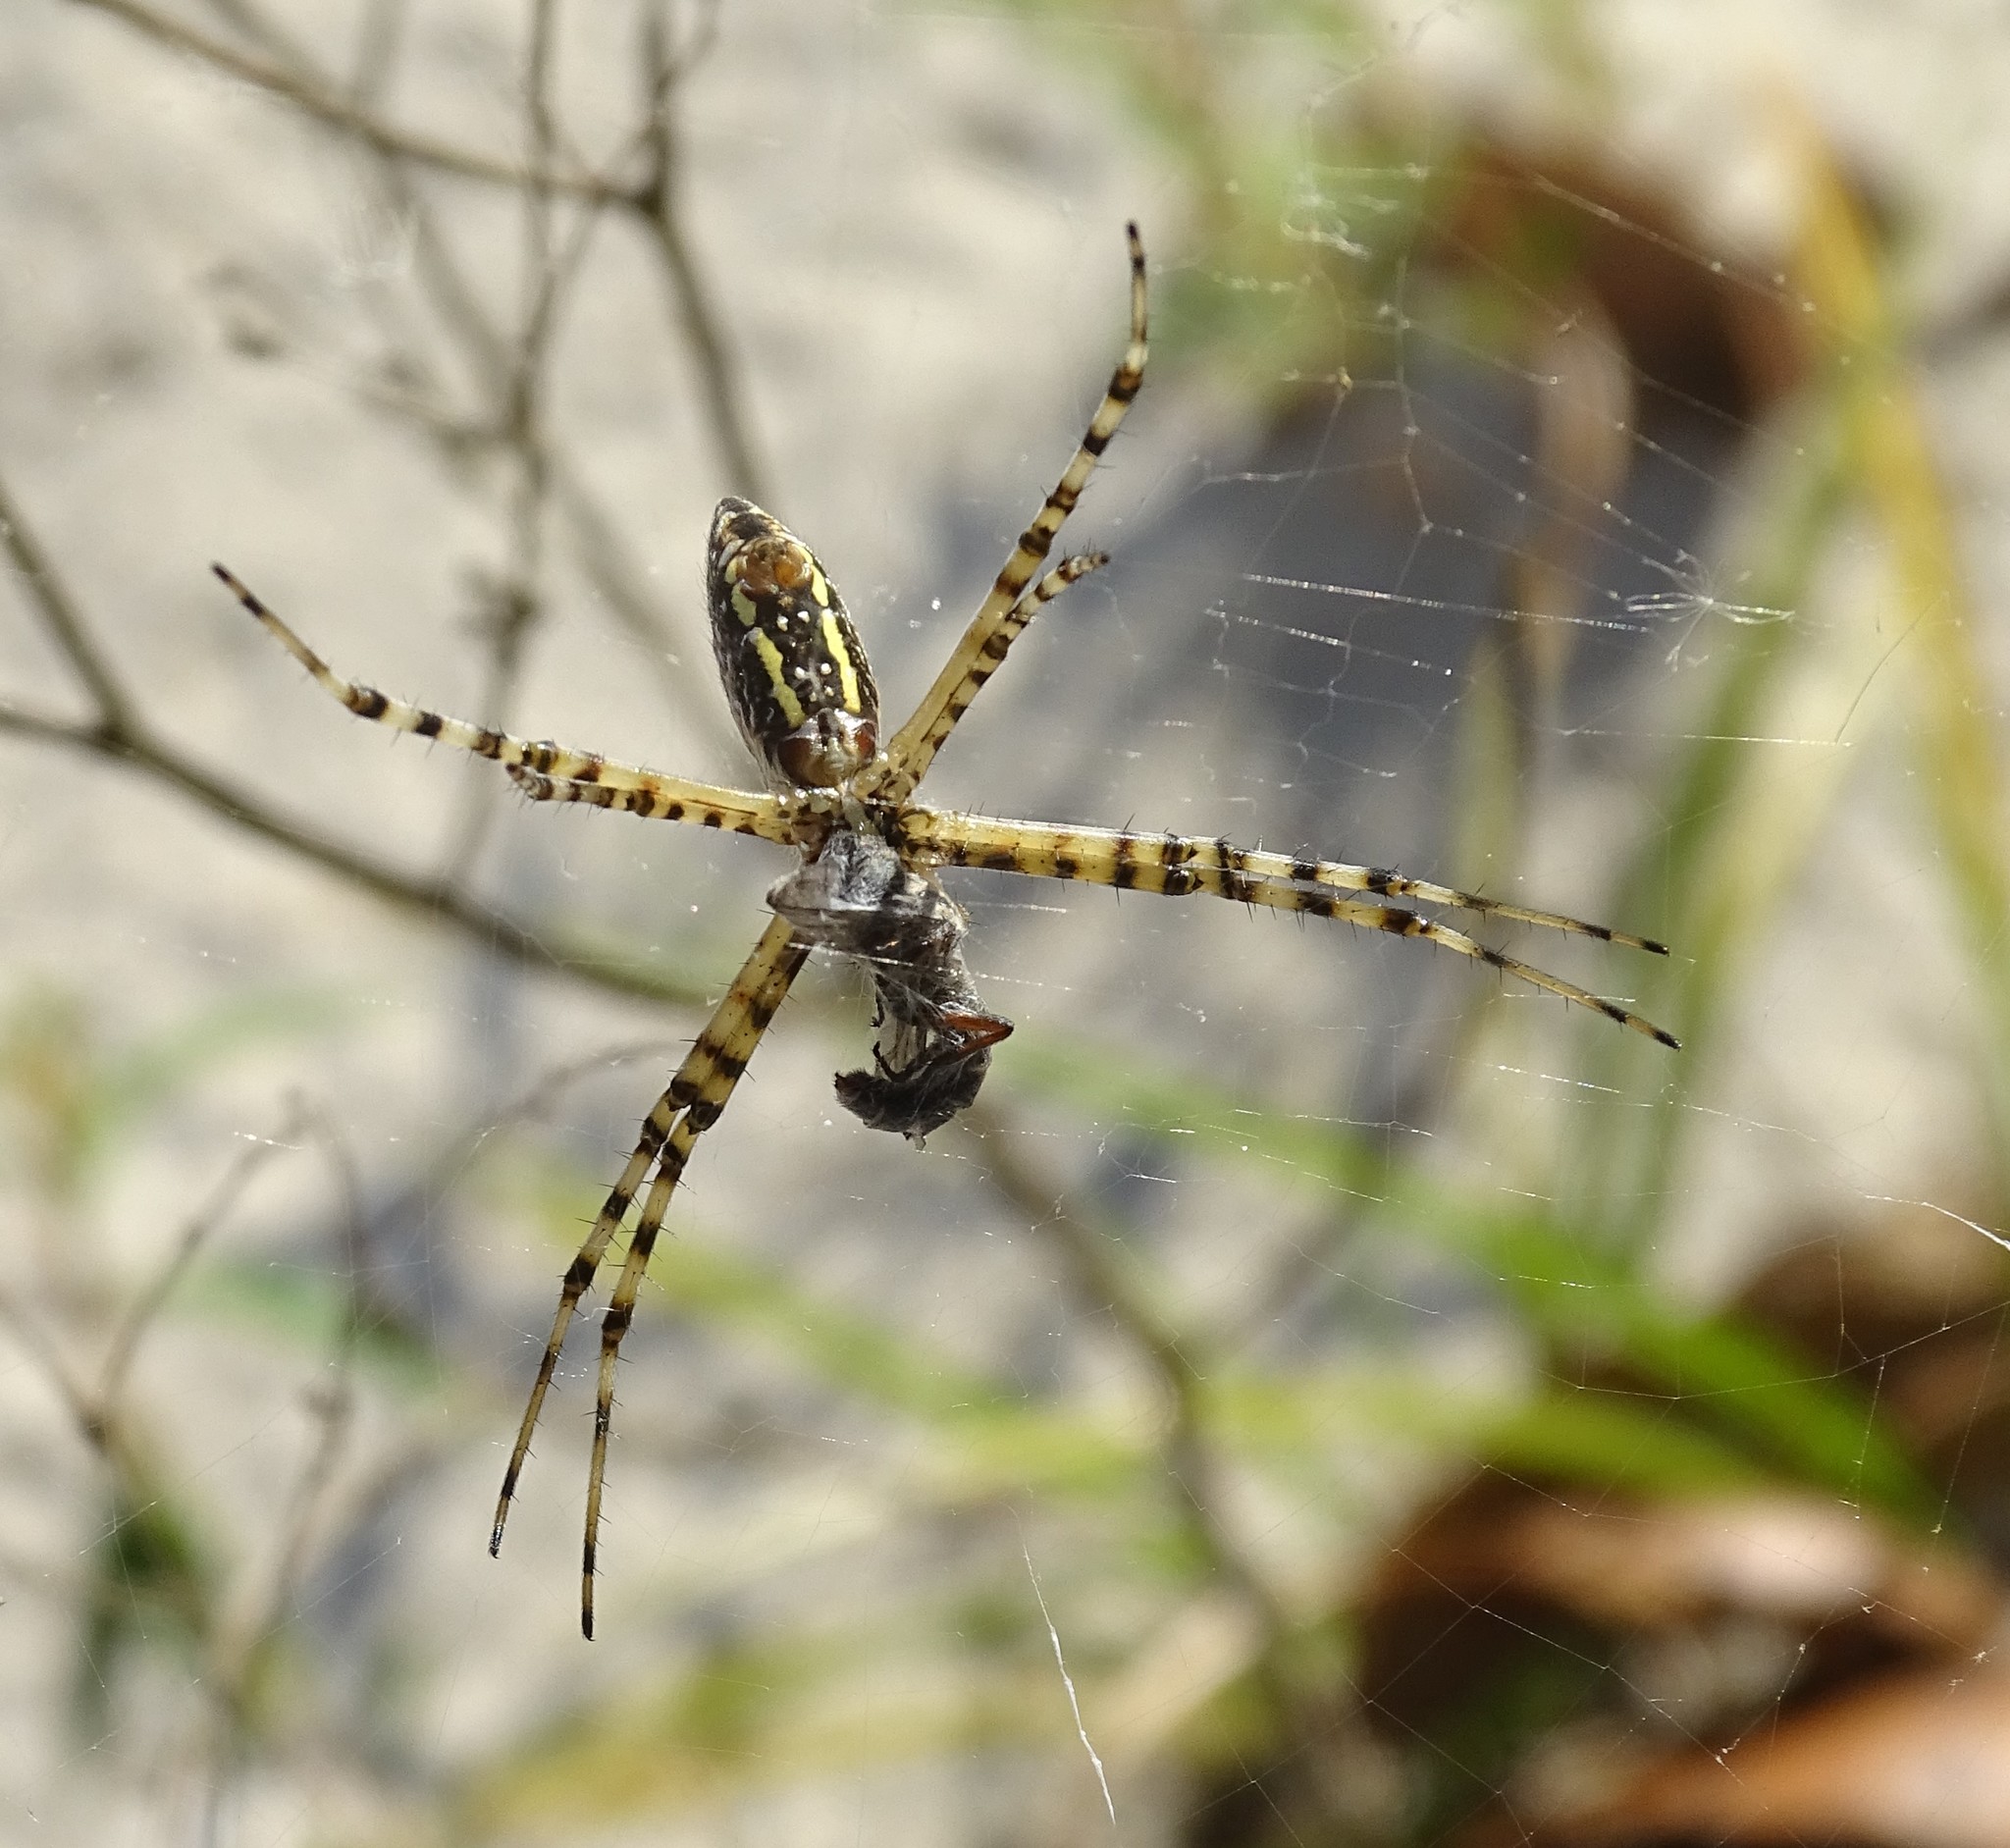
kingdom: Animalia
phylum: Arthropoda
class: Arachnida
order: Araneae
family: Araneidae
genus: Argiope
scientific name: Argiope trifasciata
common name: Banded garden spider
